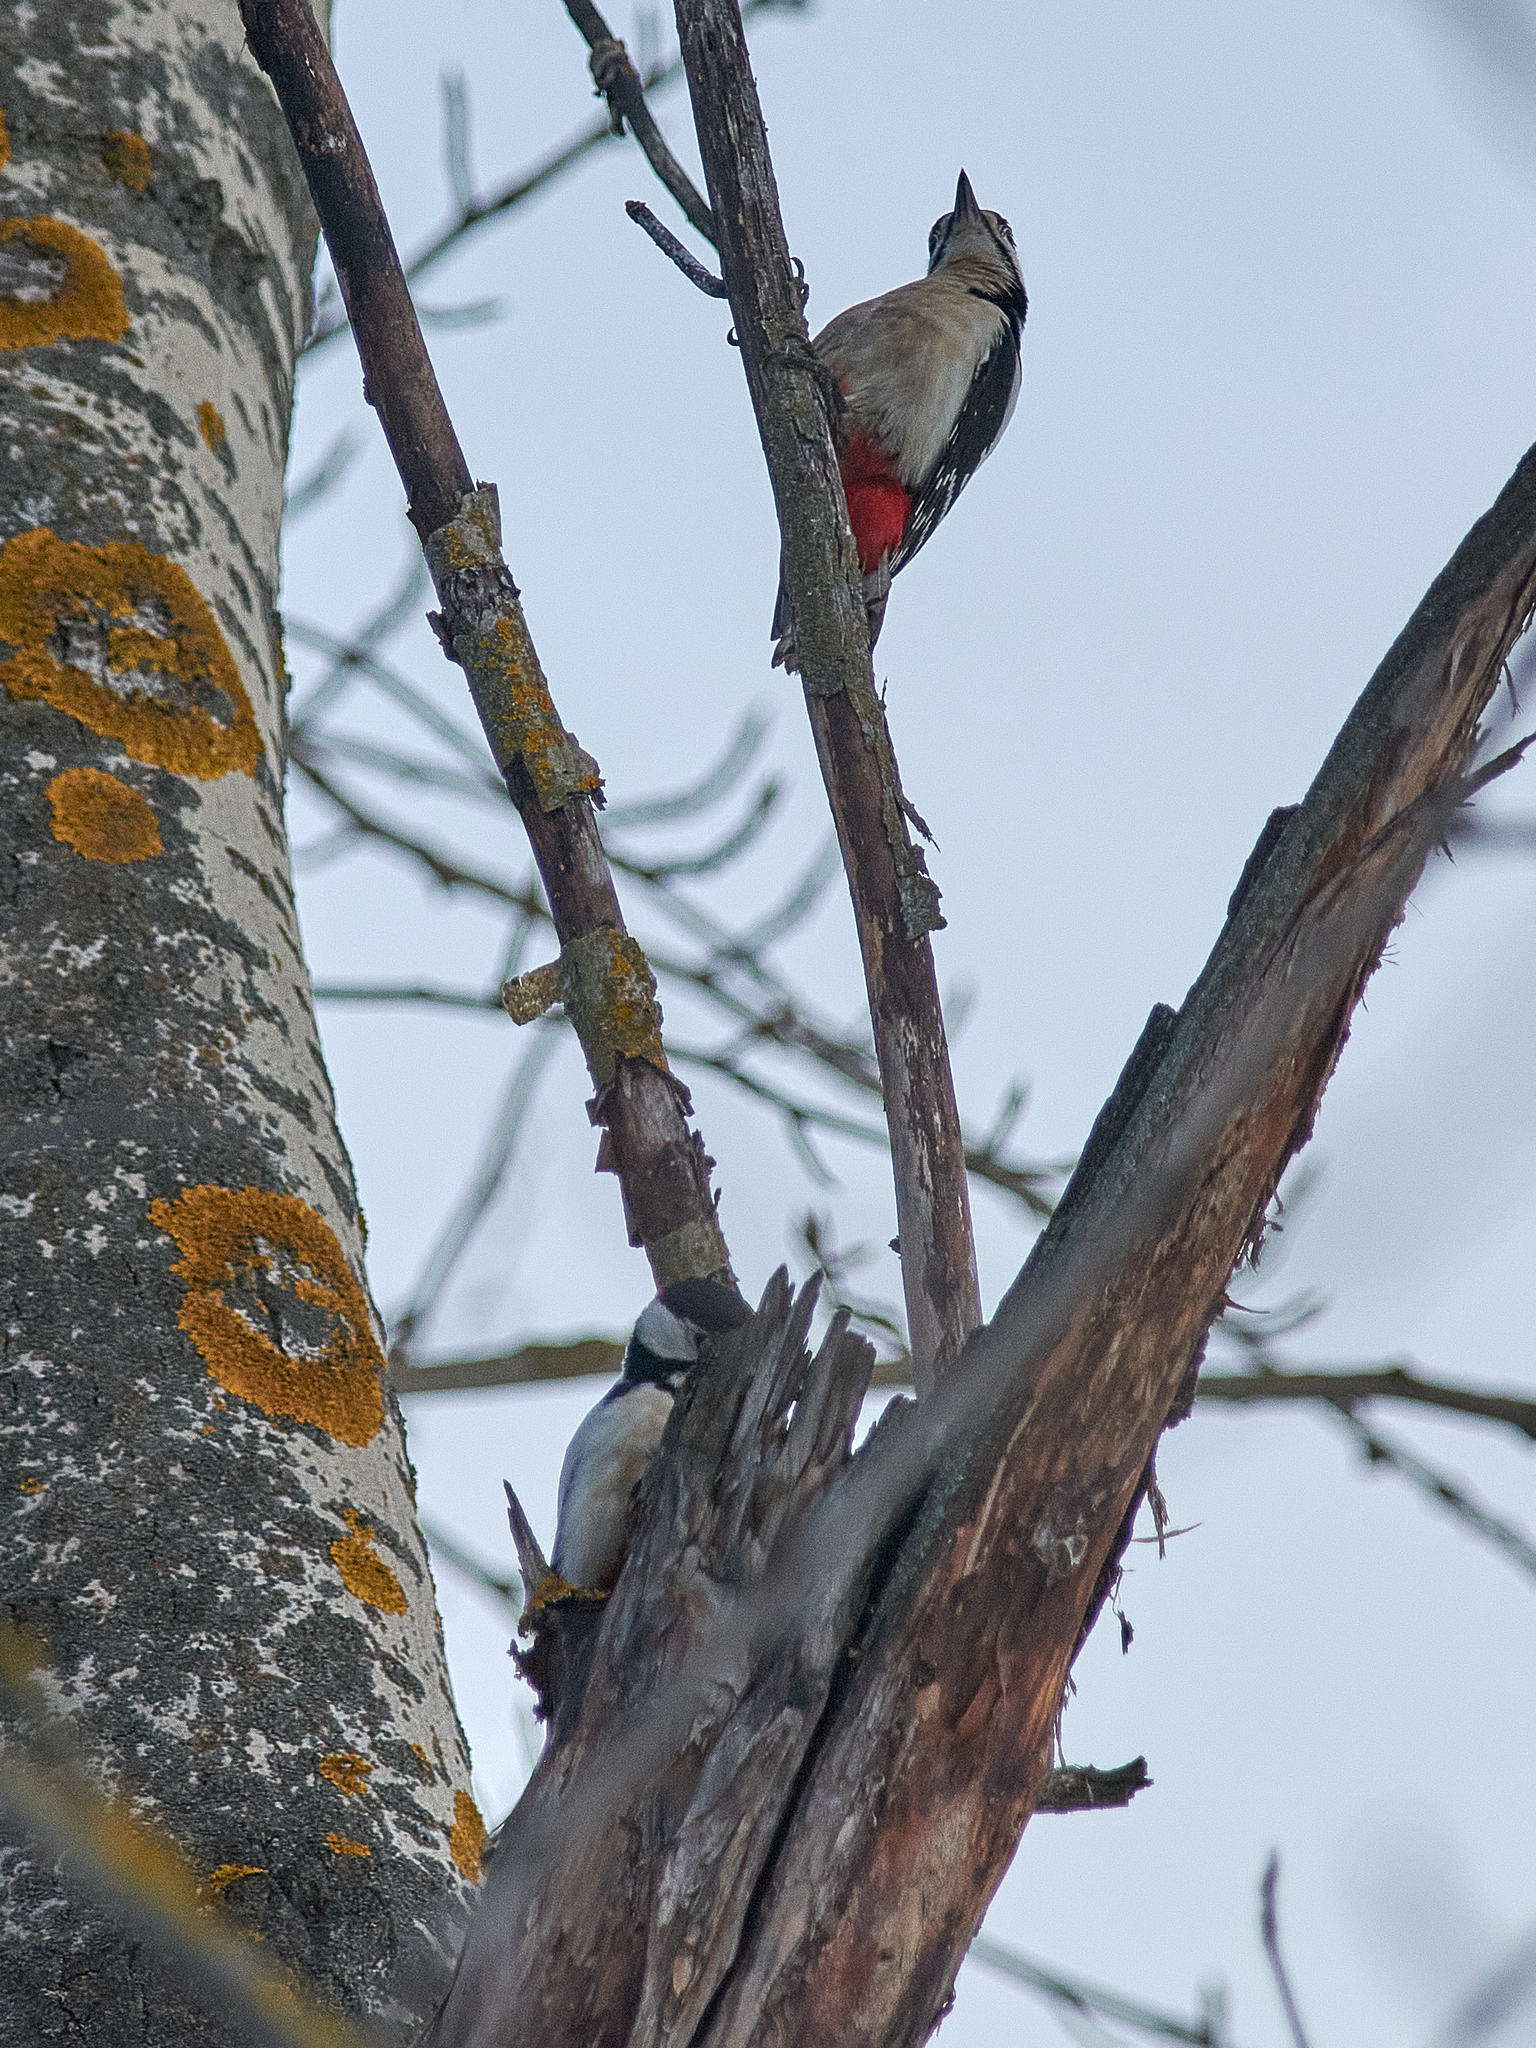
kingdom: Animalia
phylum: Chordata
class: Aves
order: Piciformes
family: Picidae
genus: Dendrocopos
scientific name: Dendrocopos major
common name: Great spotted woodpecker
